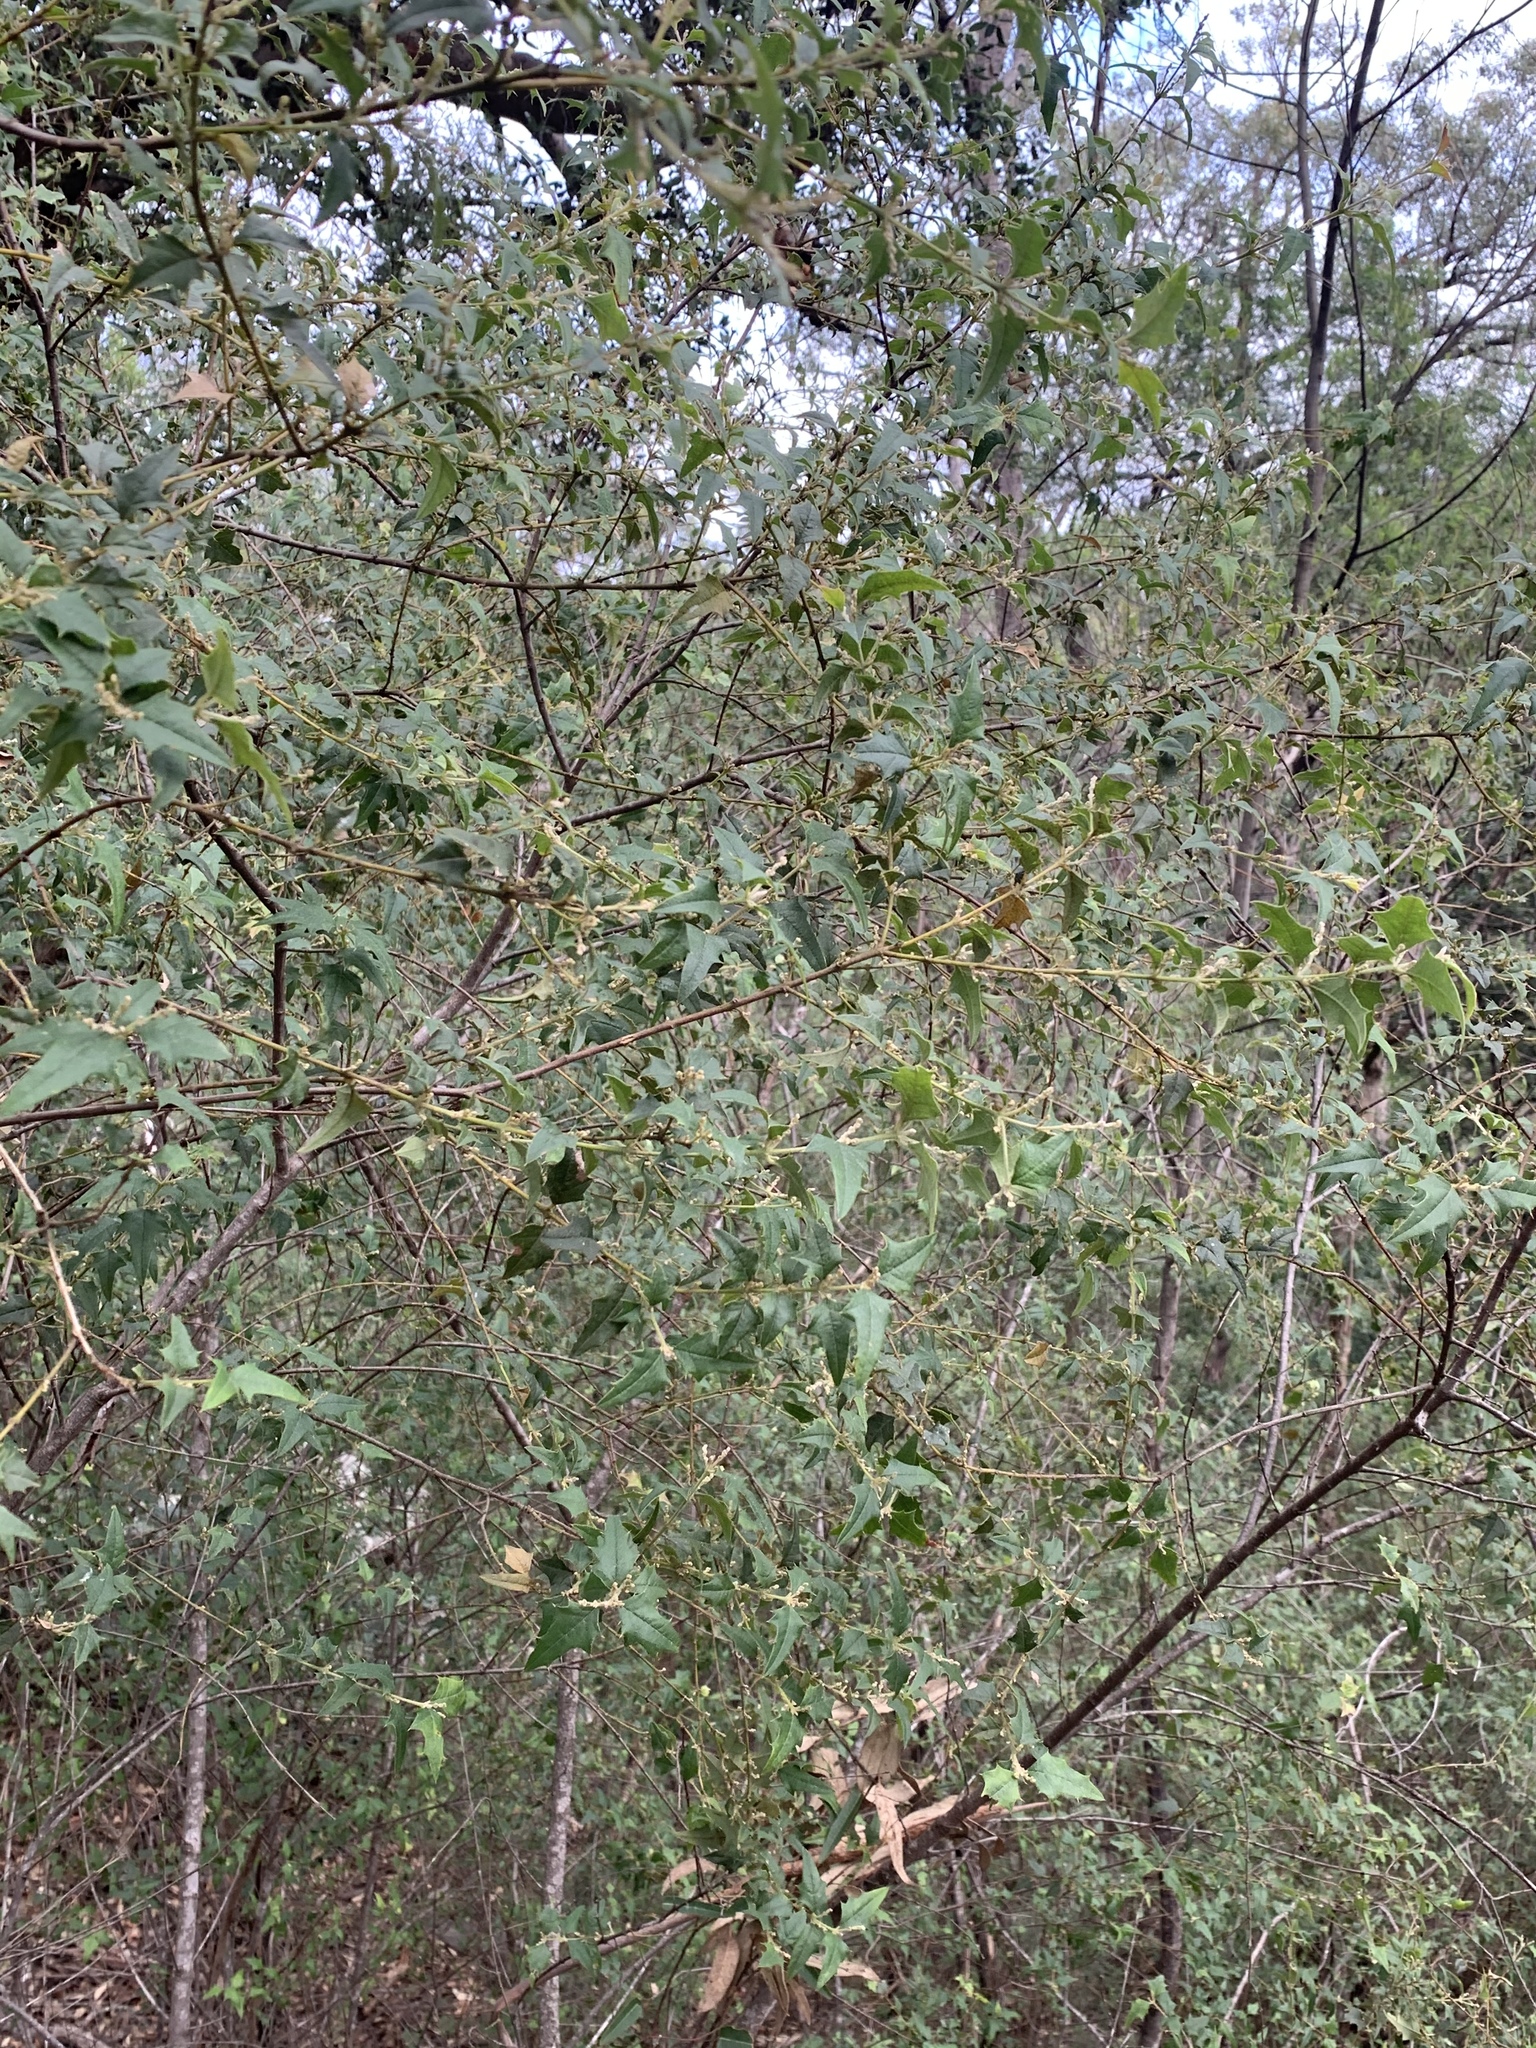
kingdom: Plantae
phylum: Tracheophyta
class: Magnoliopsida
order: Fabales
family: Fabaceae
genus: Podolobium
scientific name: Podolobium ilicifolium
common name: Native holly
